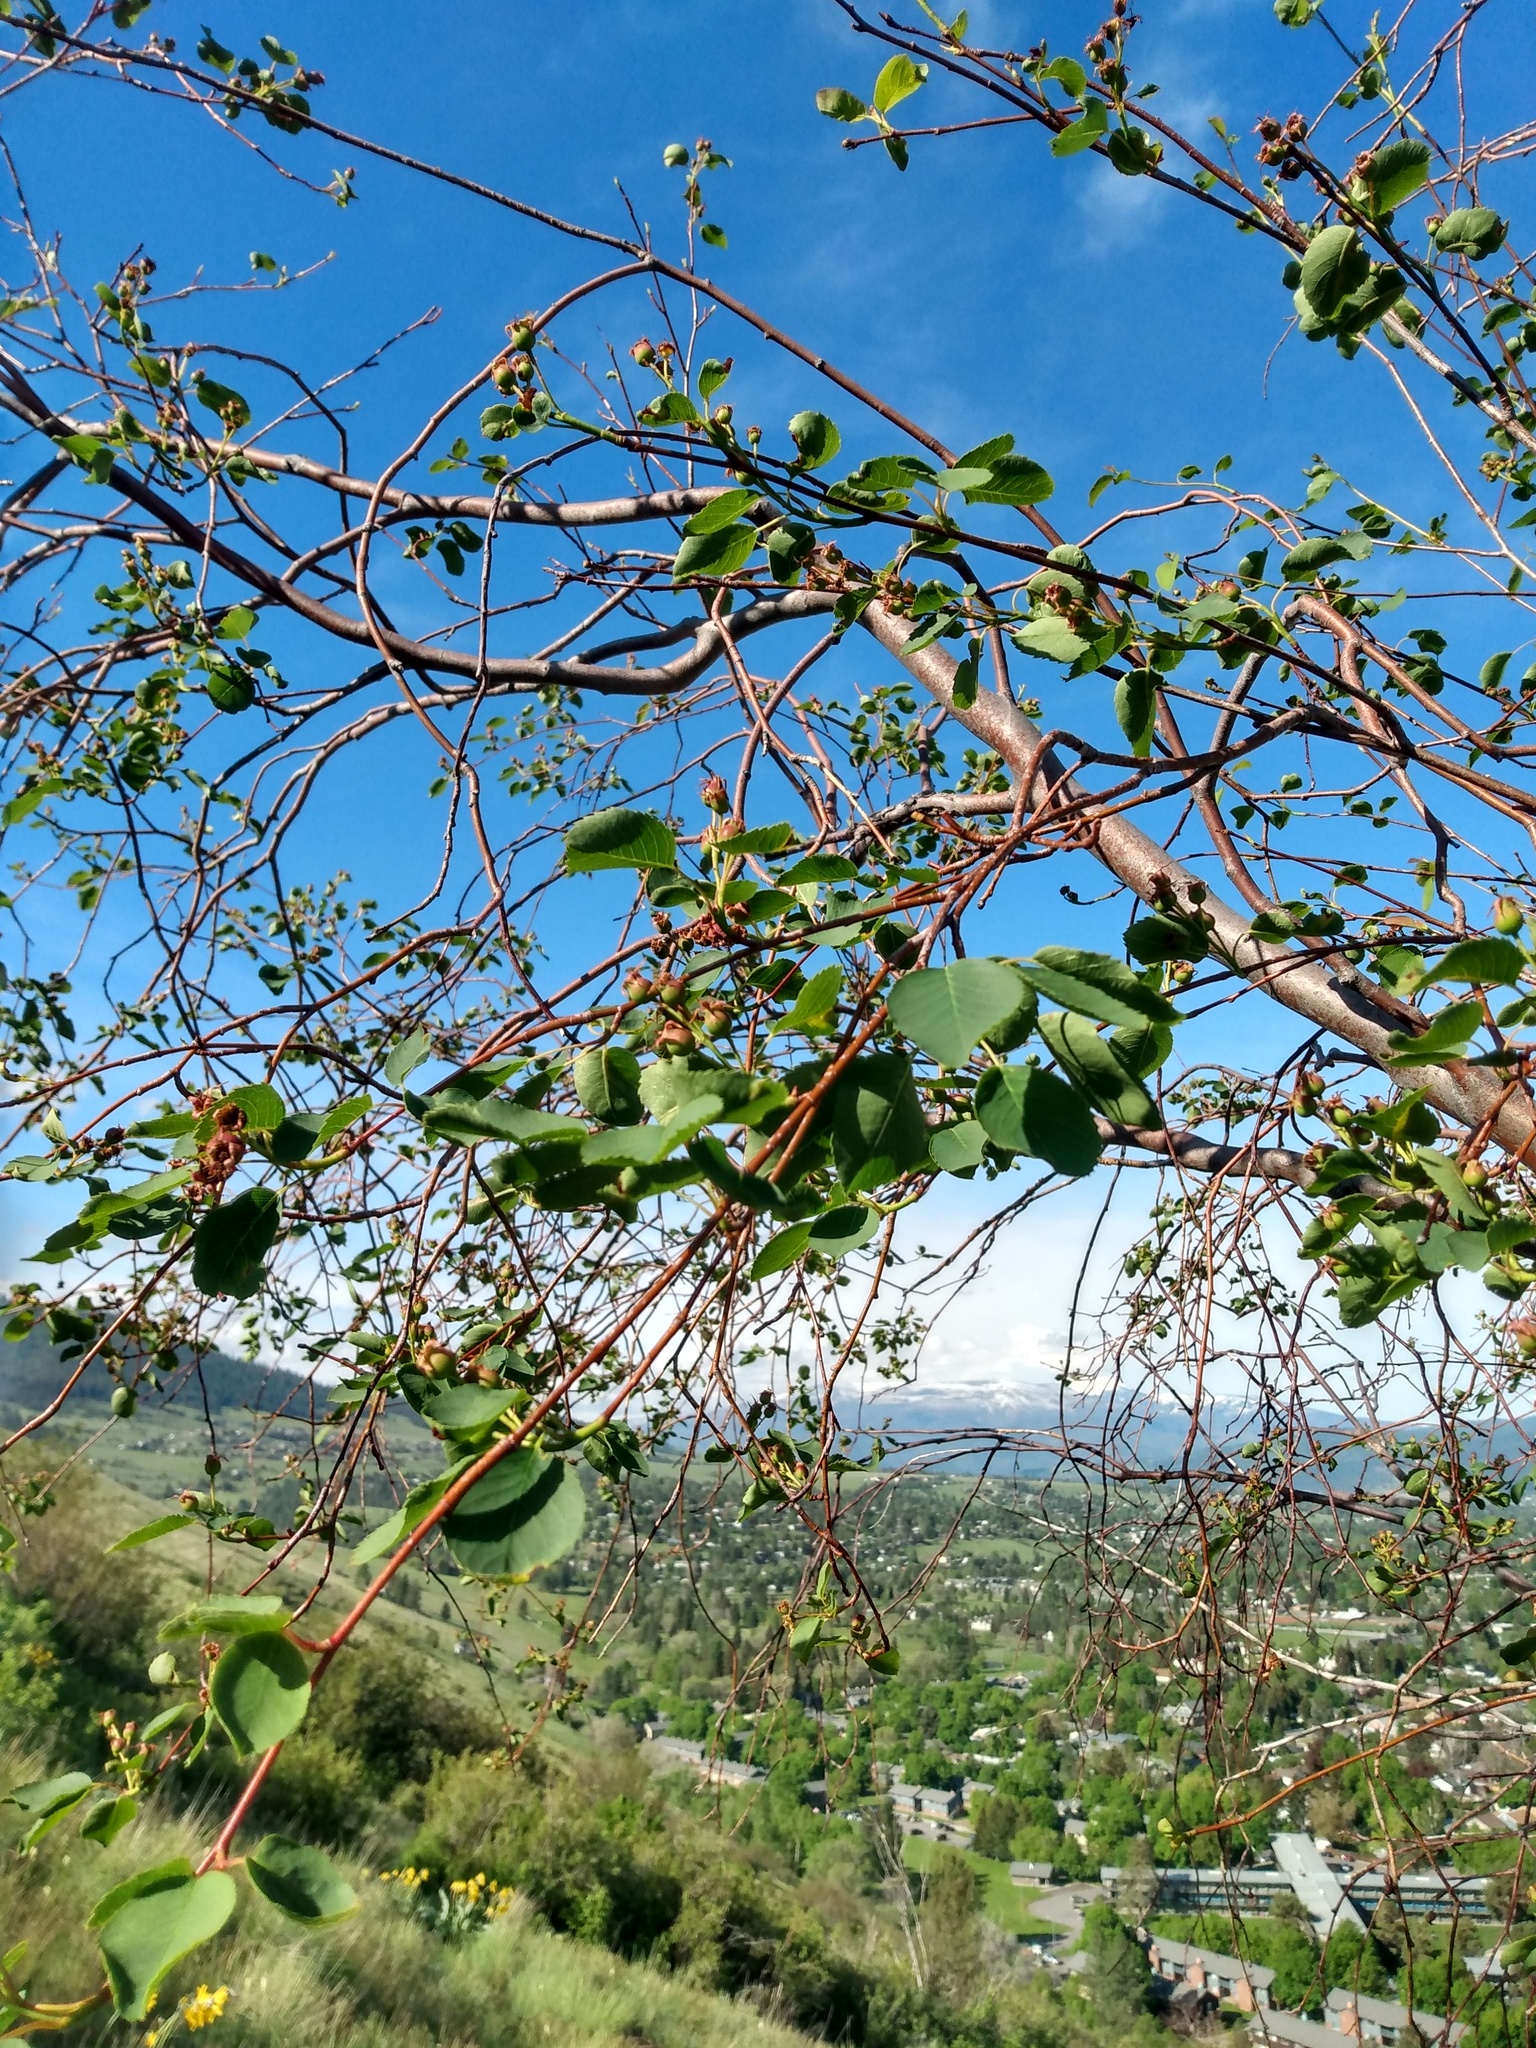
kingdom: Plantae
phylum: Tracheophyta
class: Magnoliopsida
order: Rosales
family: Rosaceae
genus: Amelanchier
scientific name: Amelanchier alnifolia
